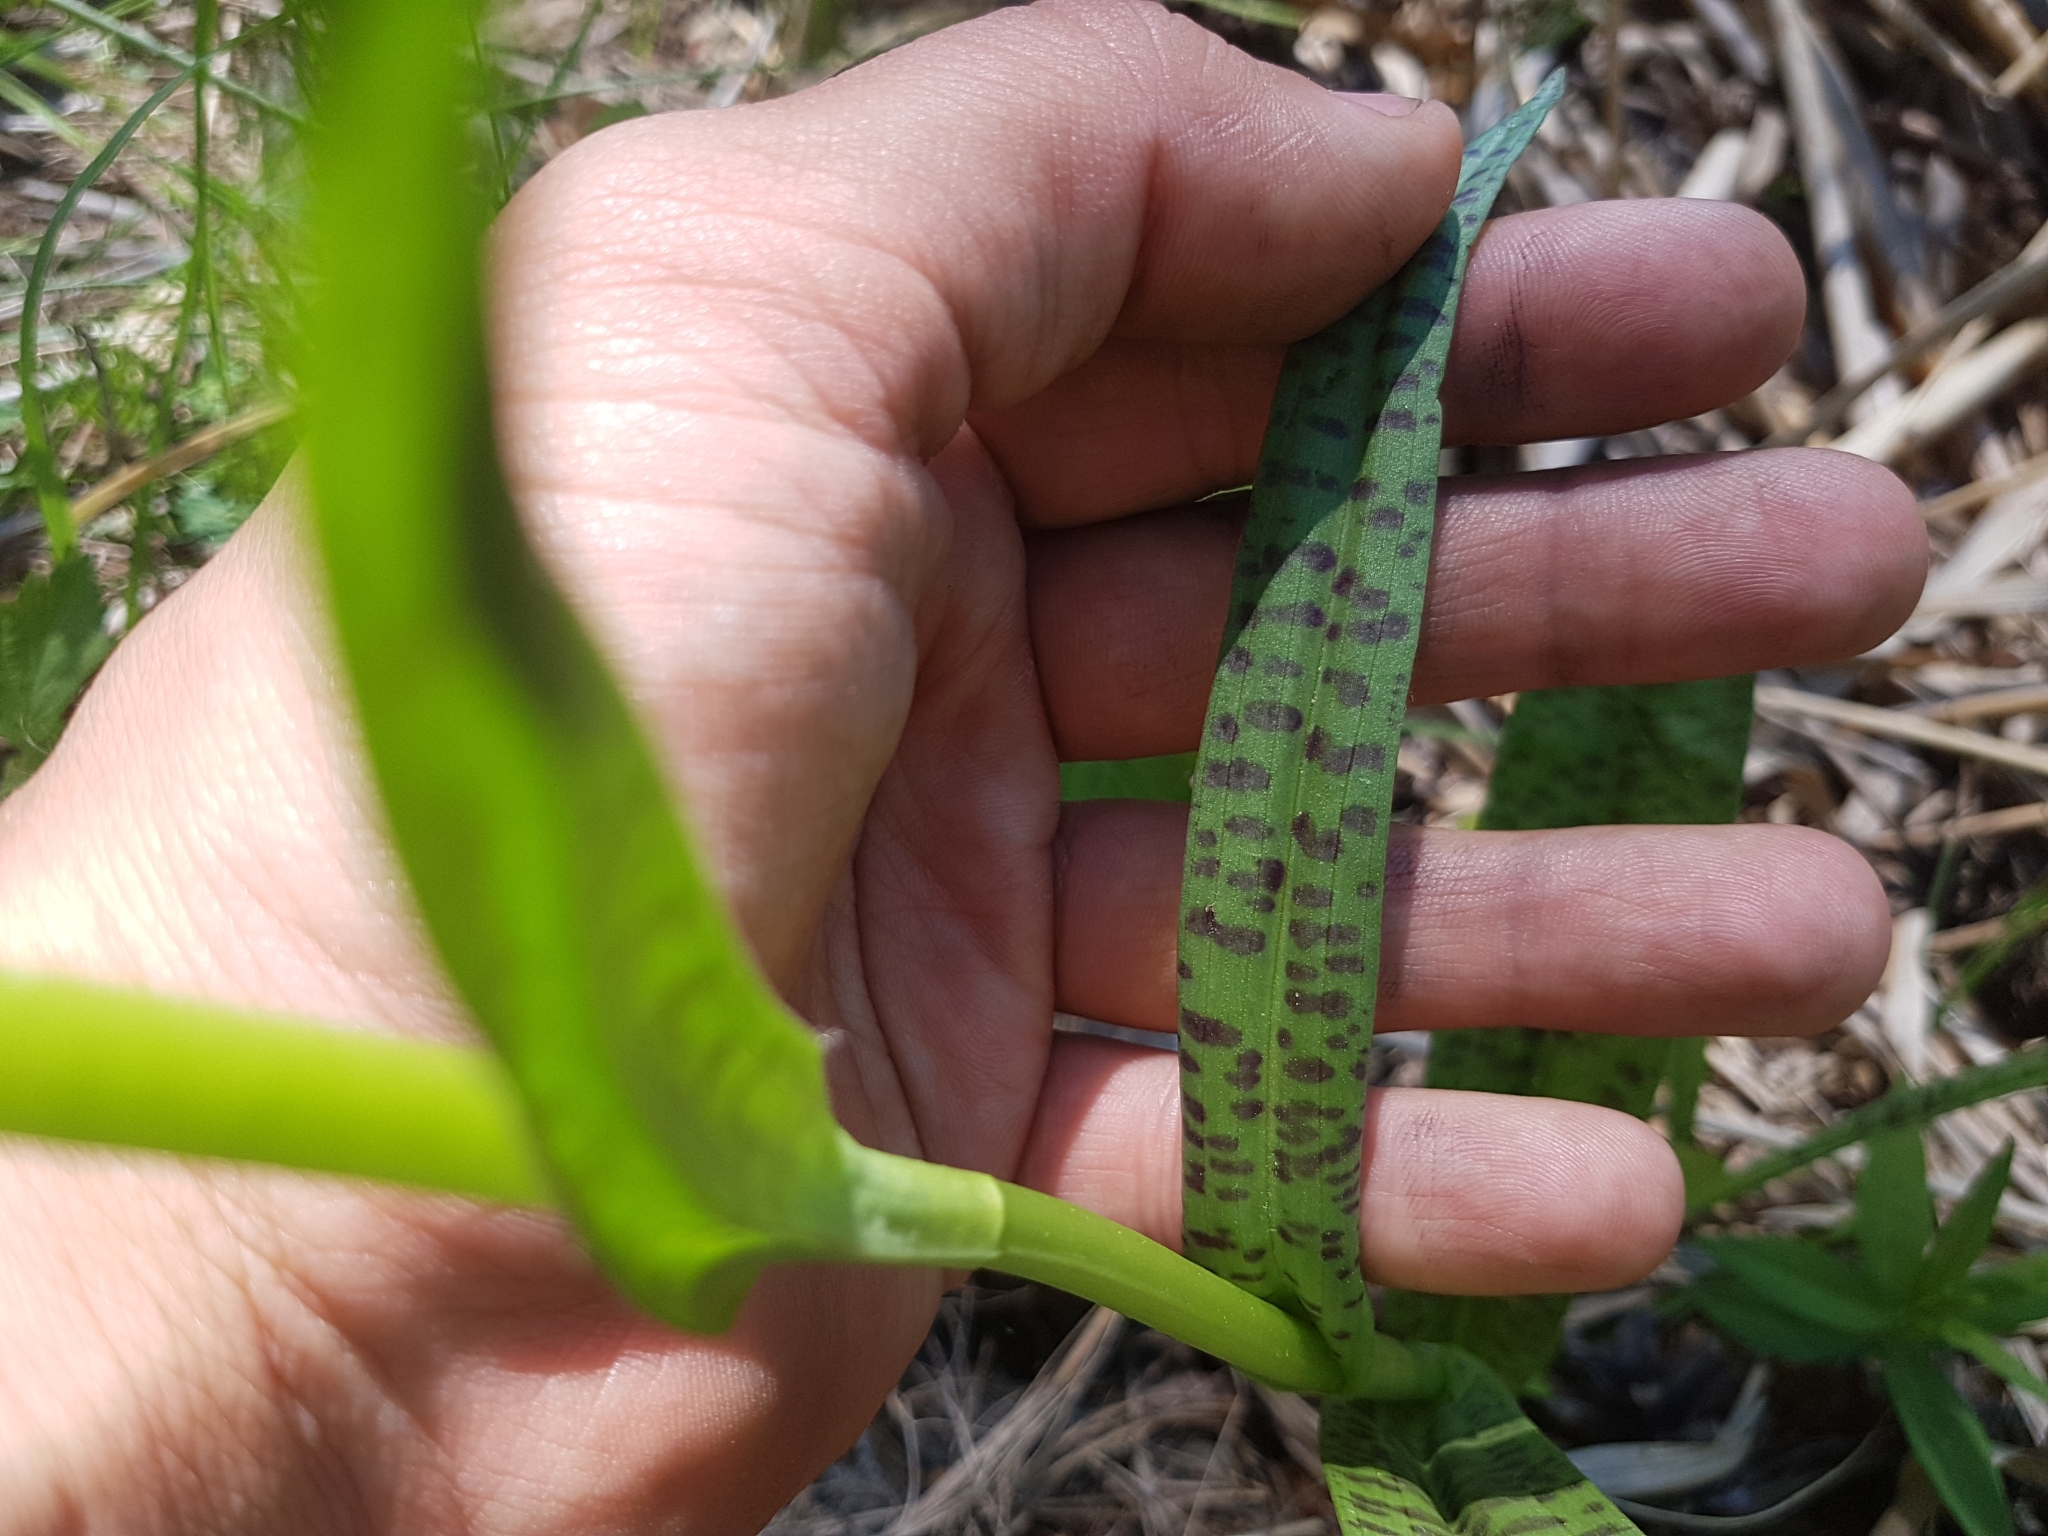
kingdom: Plantae
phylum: Tracheophyta
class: Liliopsida
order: Asparagales
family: Orchidaceae
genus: Dactylorhiza
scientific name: Dactylorhiza majalis
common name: Marsh orchid
